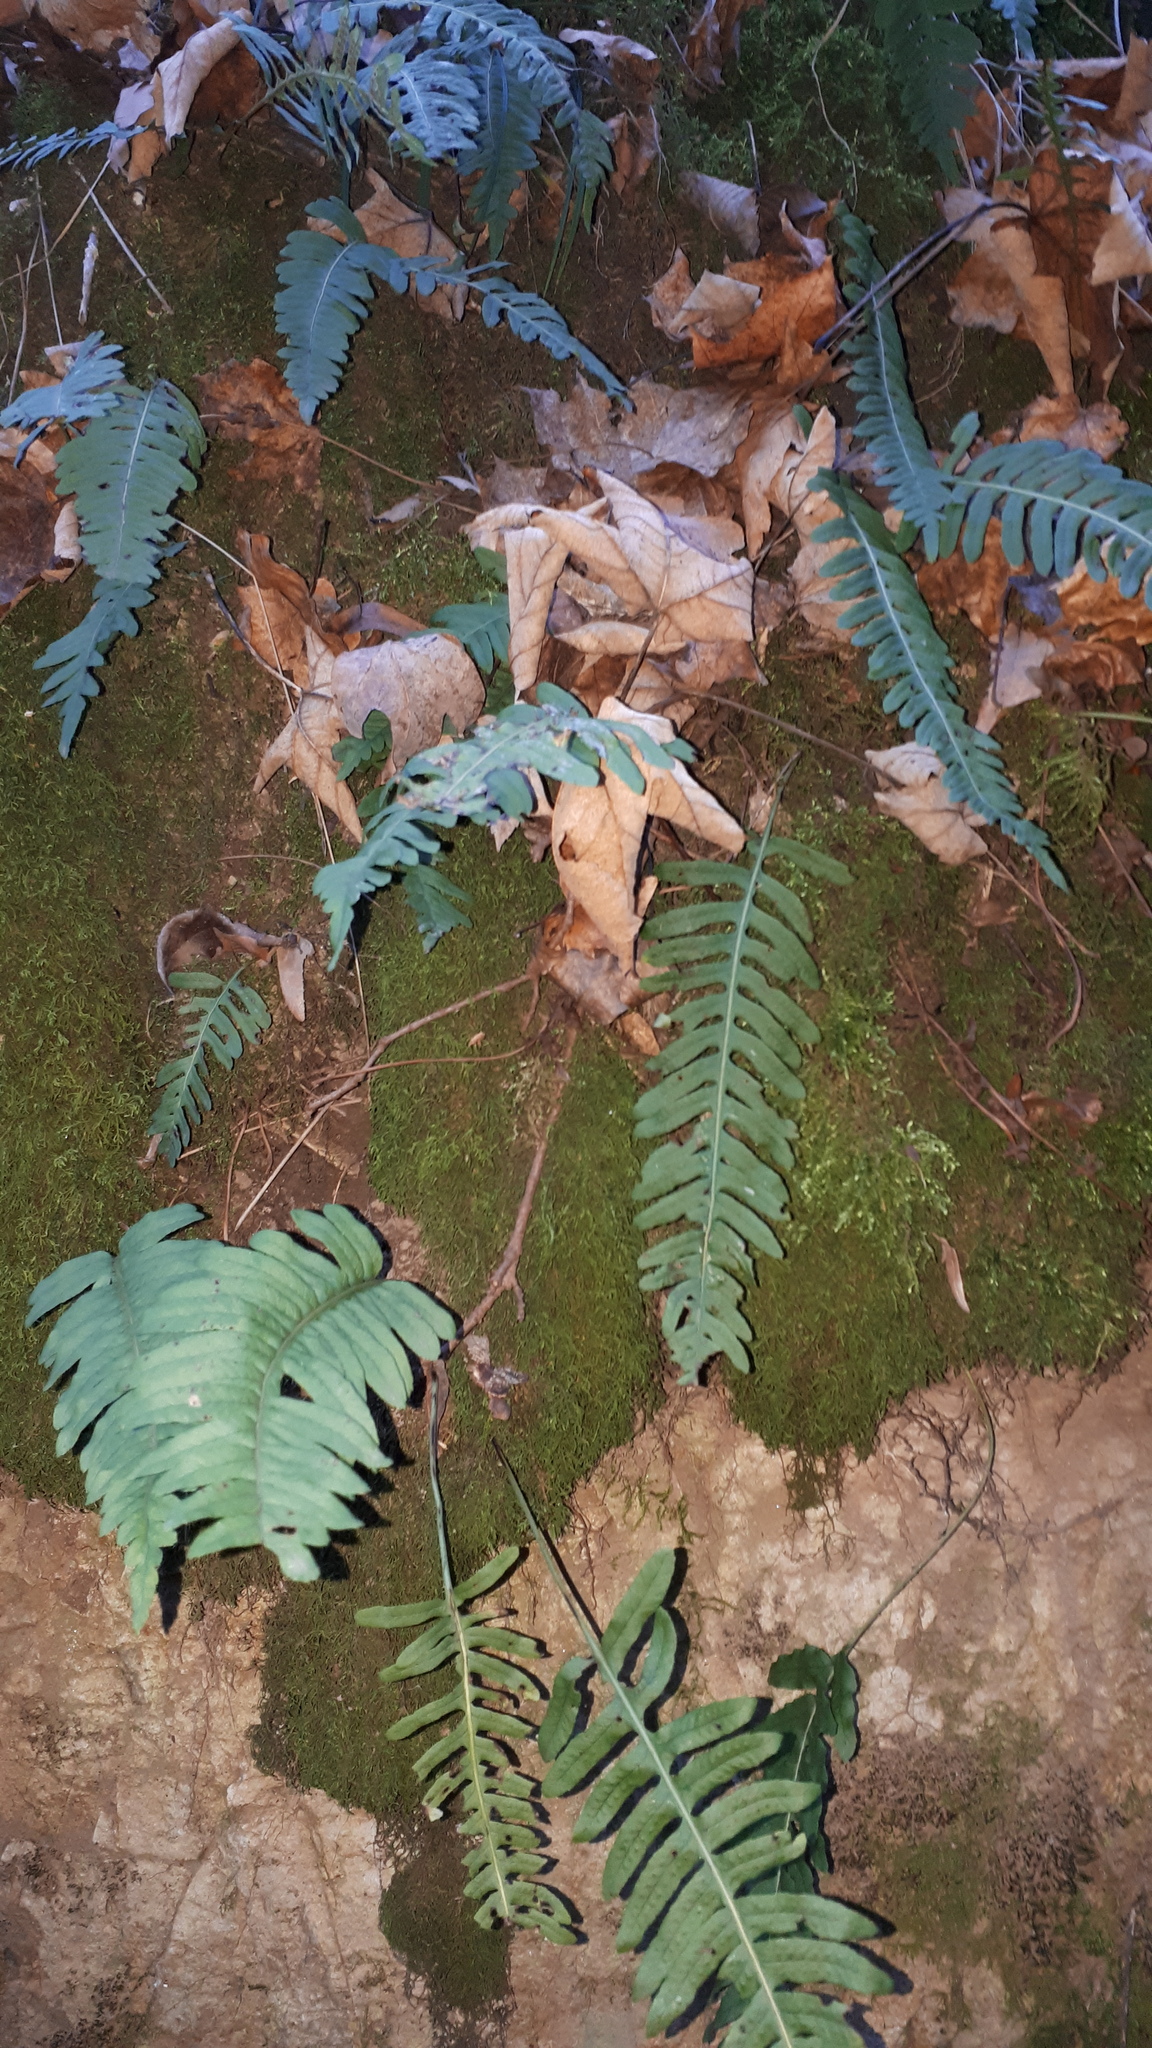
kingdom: Plantae
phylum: Tracheophyta
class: Polypodiopsida
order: Polypodiales
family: Polypodiaceae
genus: Polypodium
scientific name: Polypodium vulgare
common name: Common polypody
